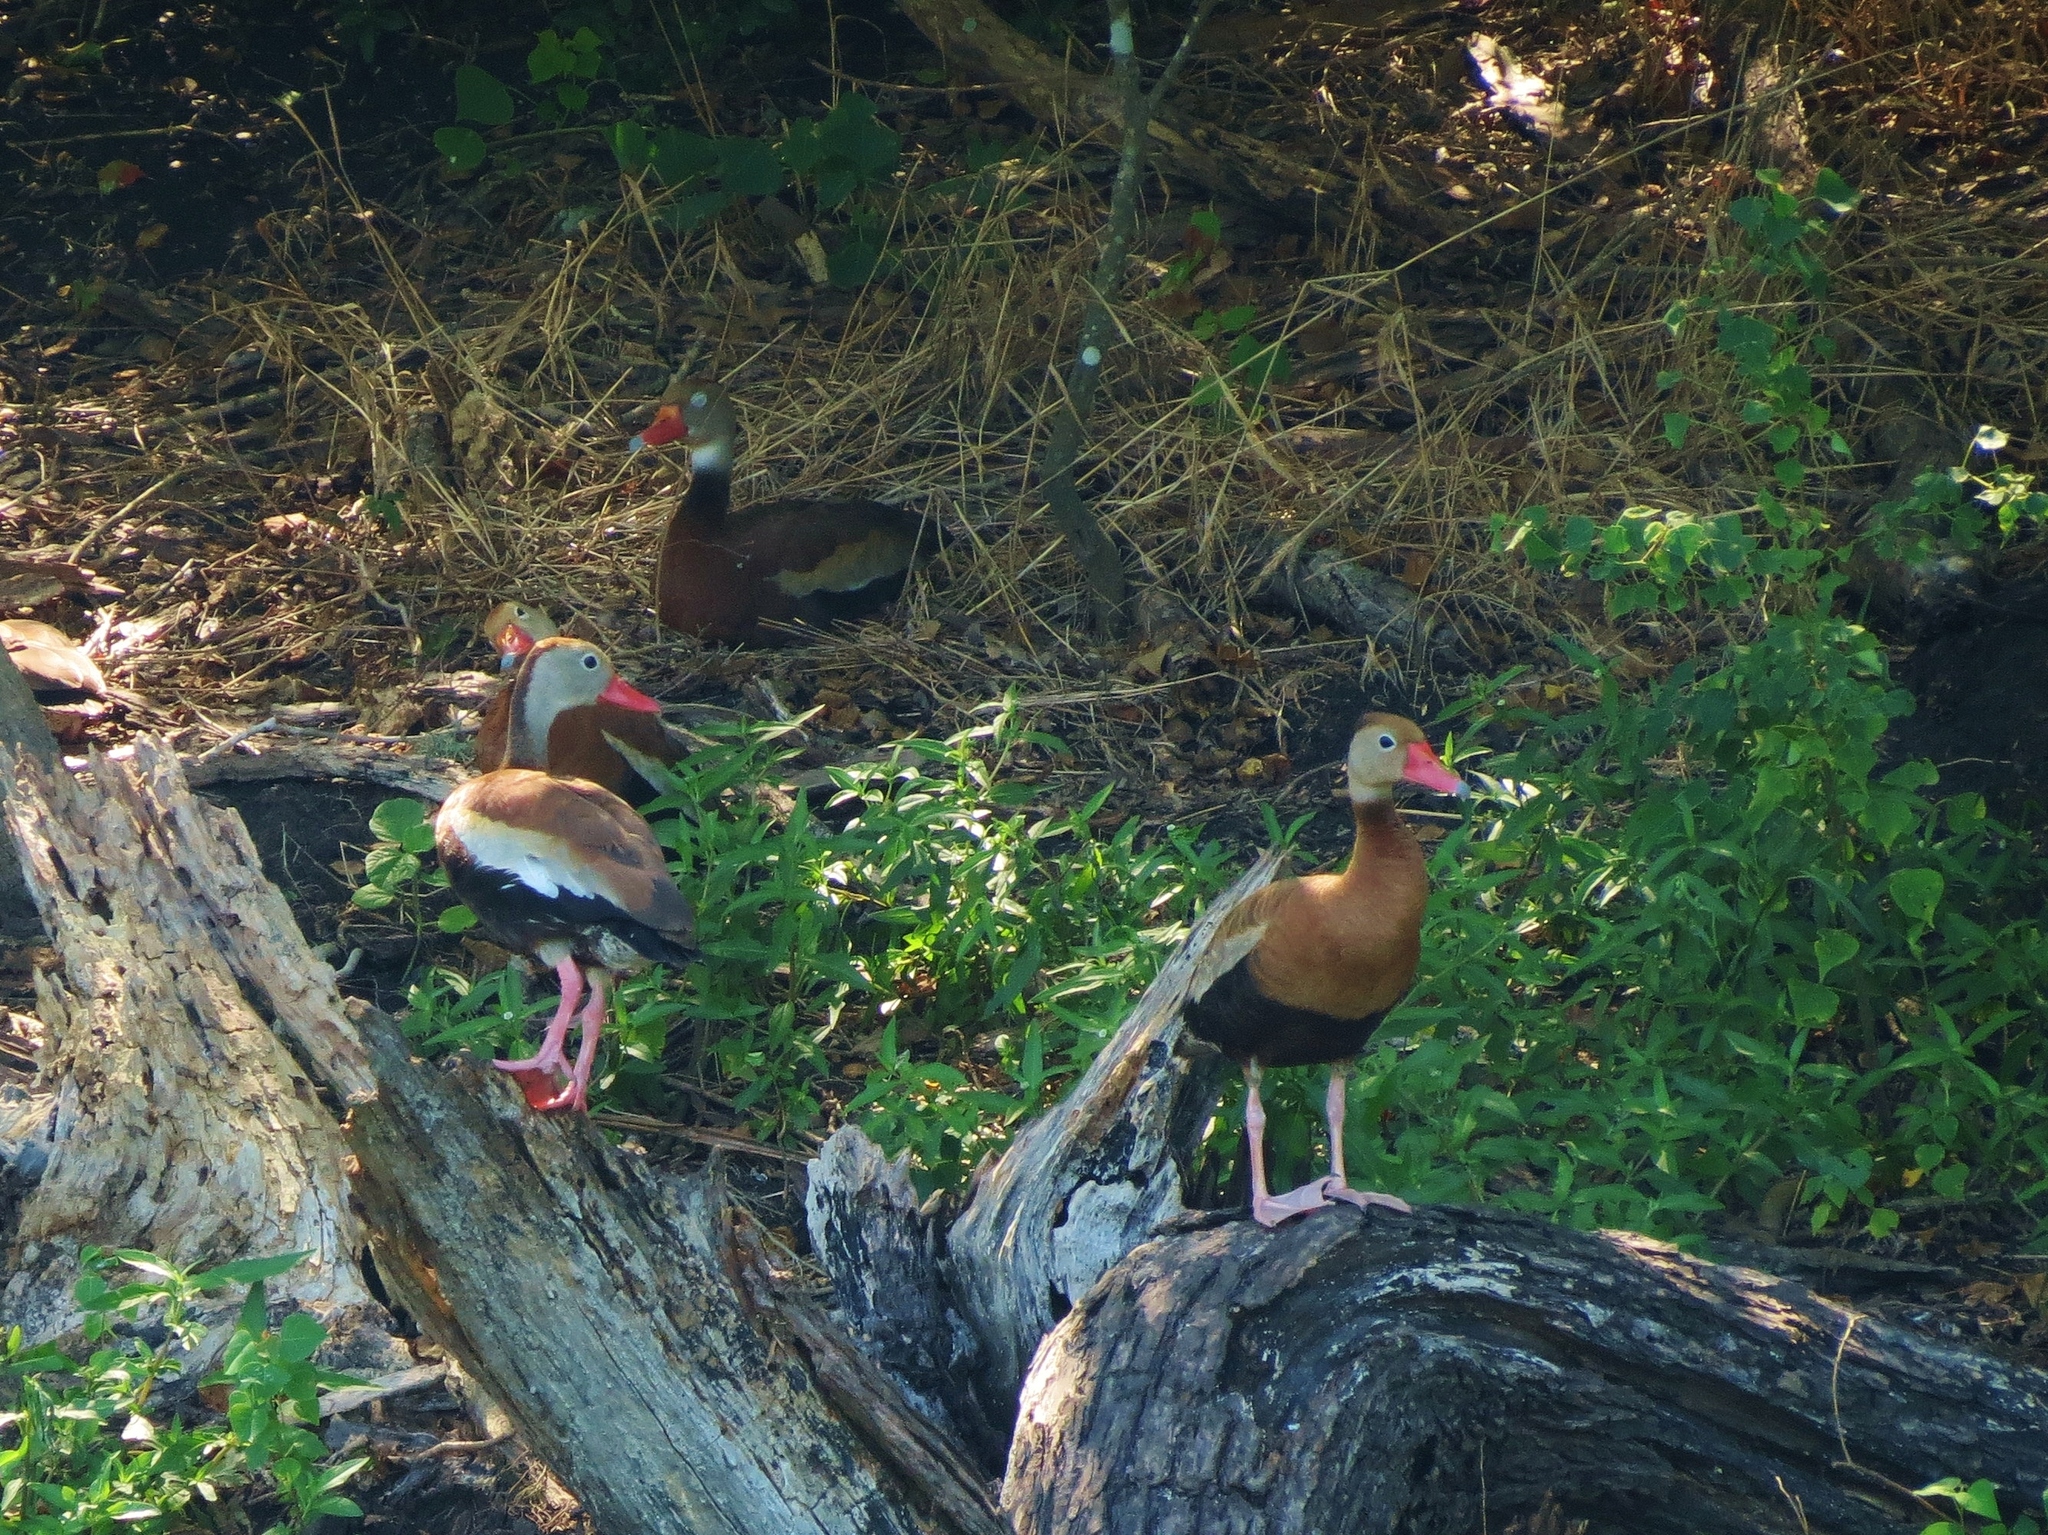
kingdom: Animalia
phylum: Chordata
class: Aves
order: Anseriformes
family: Anatidae
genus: Dendrocygna
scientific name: Dendrocygna autumnalis
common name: Black-bellied whistling duck
